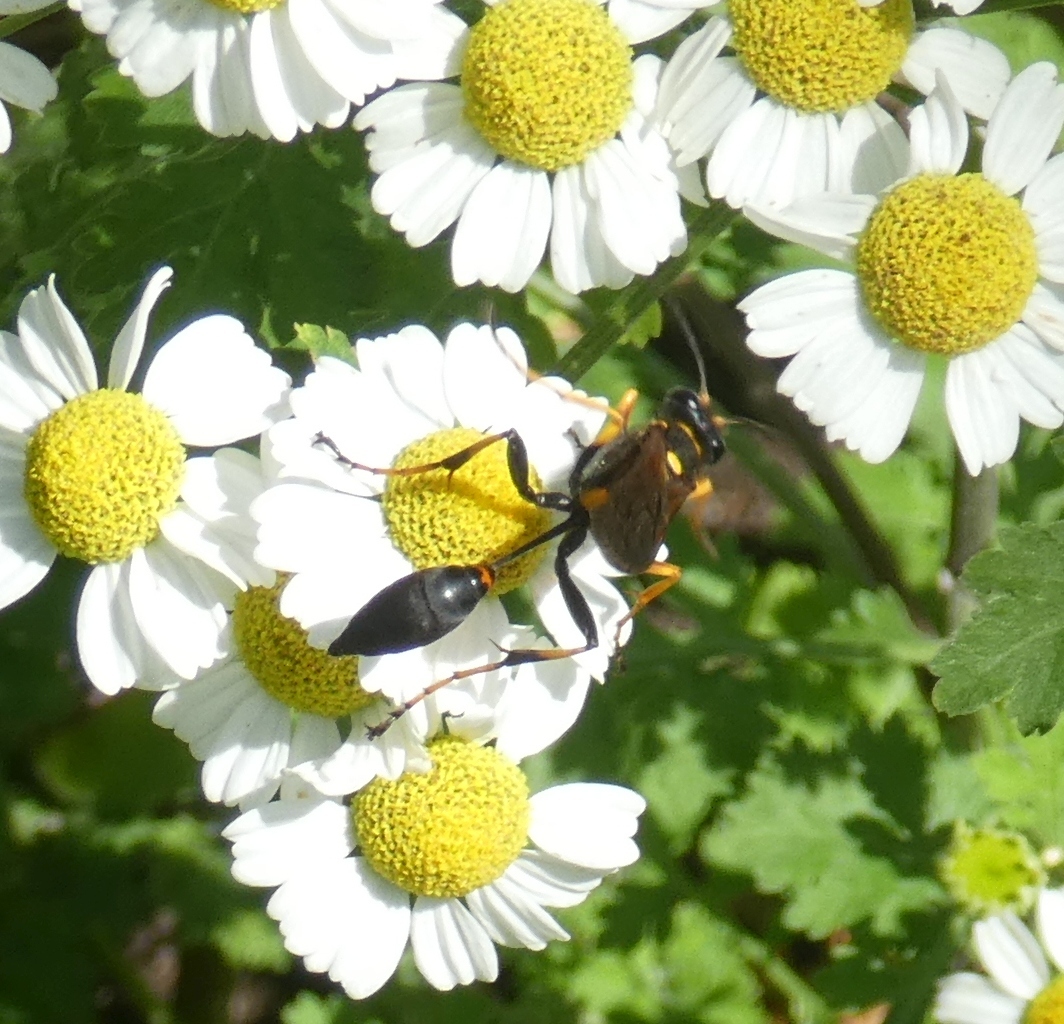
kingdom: Animalia
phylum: Arthropoda
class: Insecta
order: Hymenoptera
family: Sphecidae
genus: Sceliphron
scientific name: Sceliphron caementarium
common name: Mud dauber
